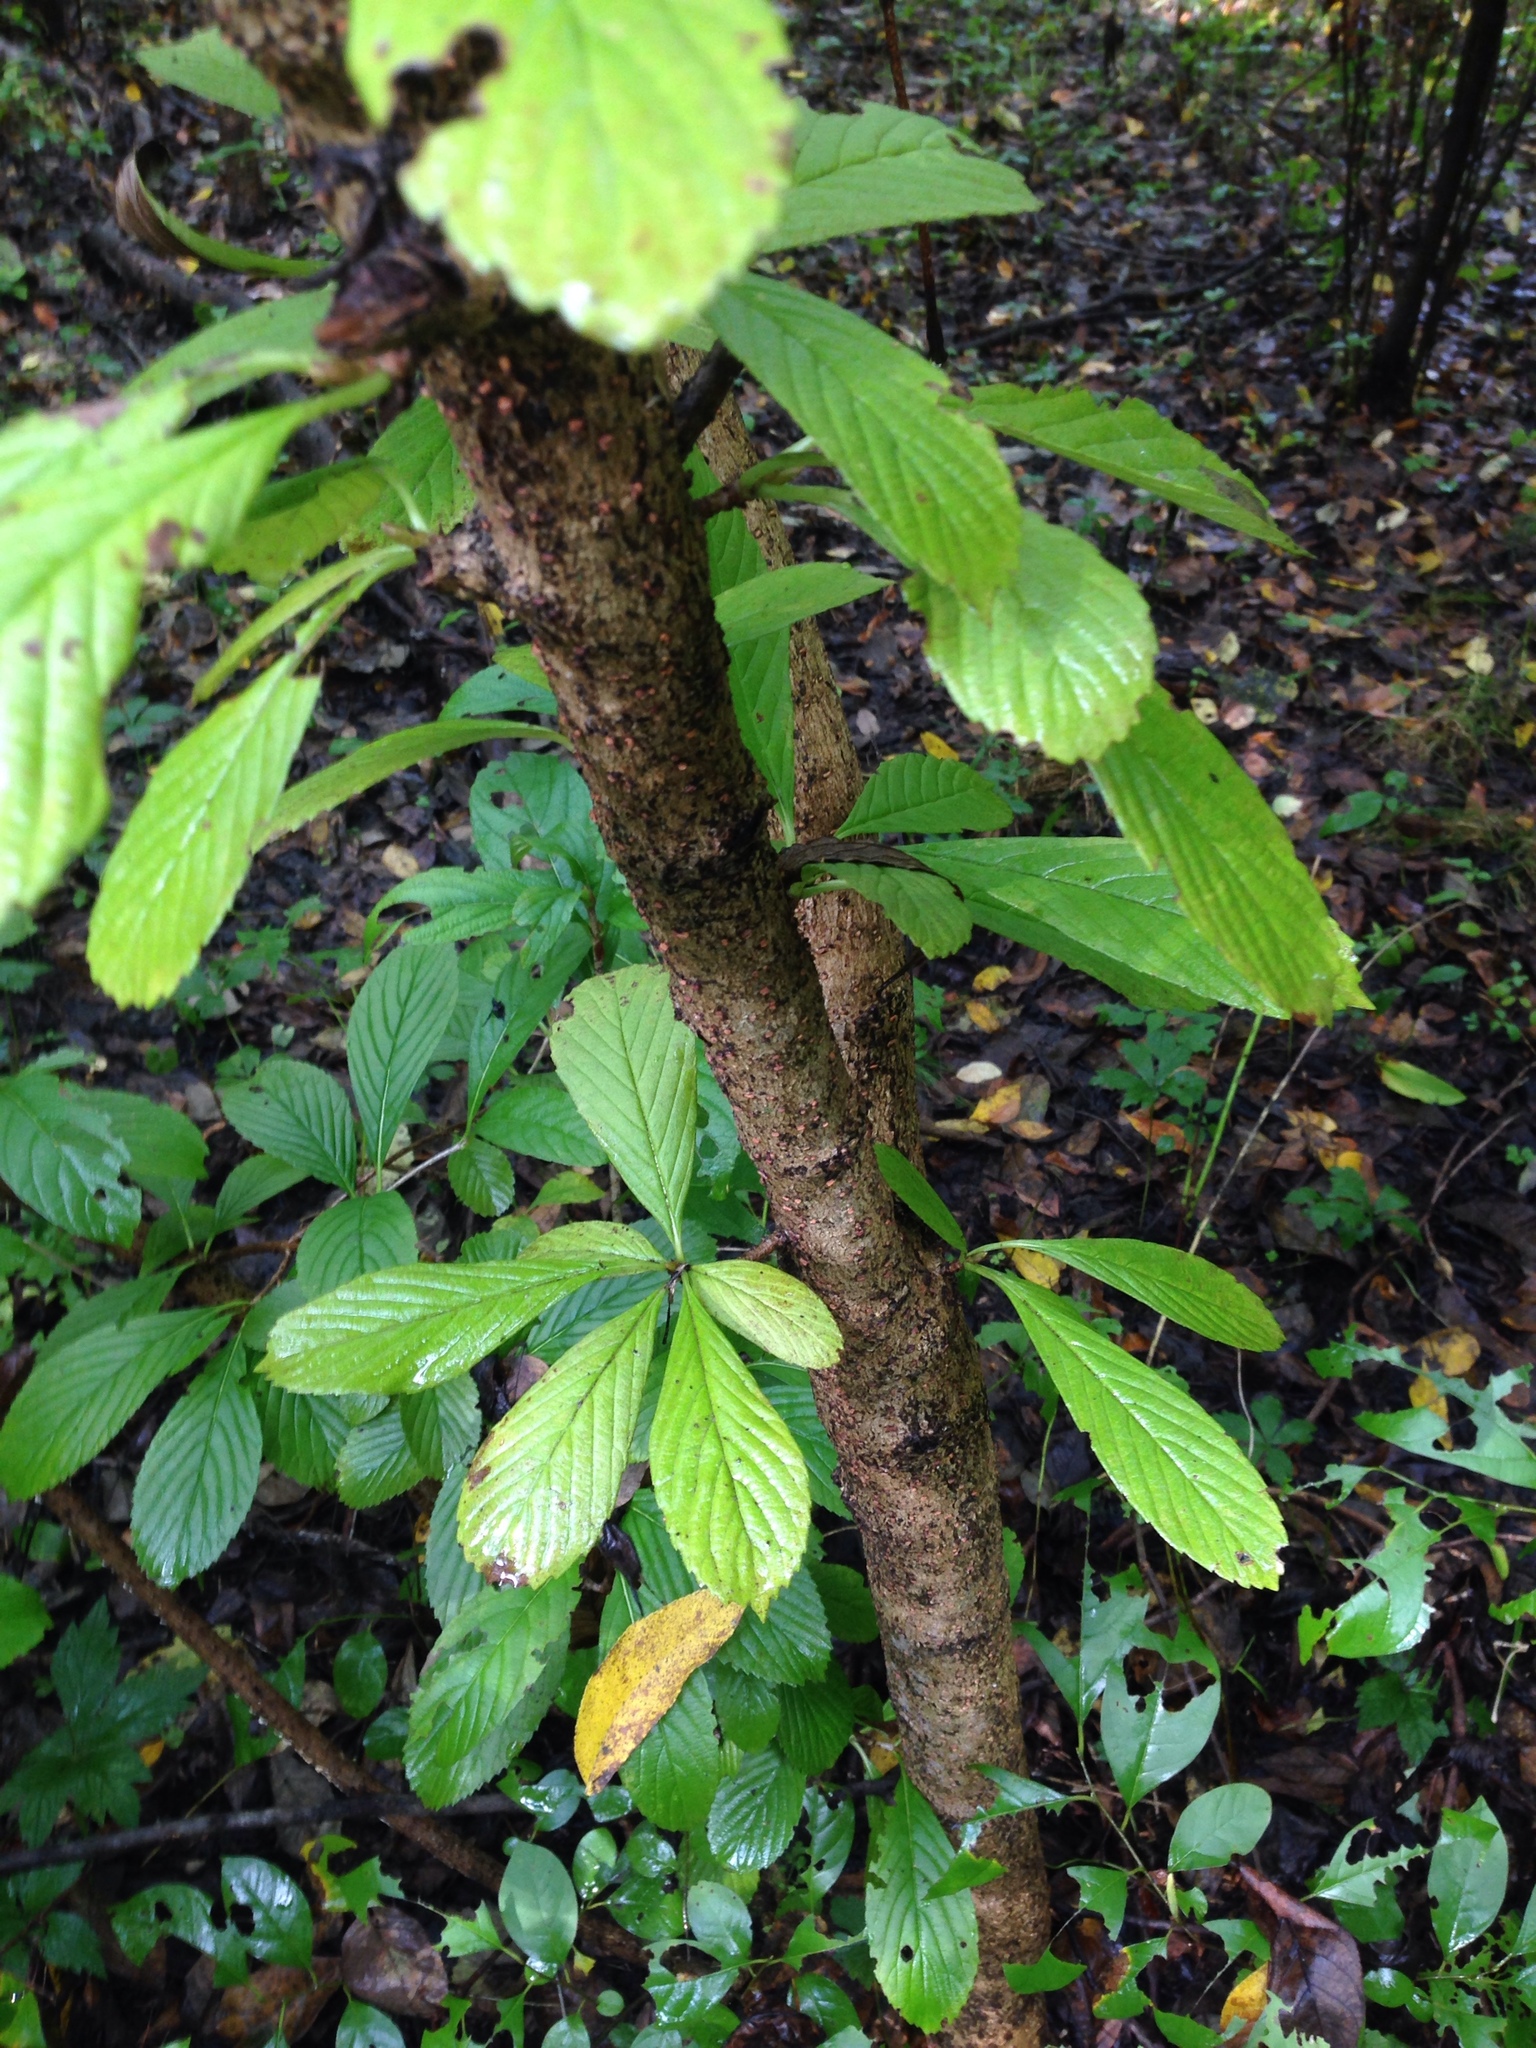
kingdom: Plantae
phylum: Tracheophyta
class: Magnoliopsida
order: Dipsacales
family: Viburnaceae
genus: Viburnum
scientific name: Viburnum sieboldii
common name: Siebold's arrowwood
